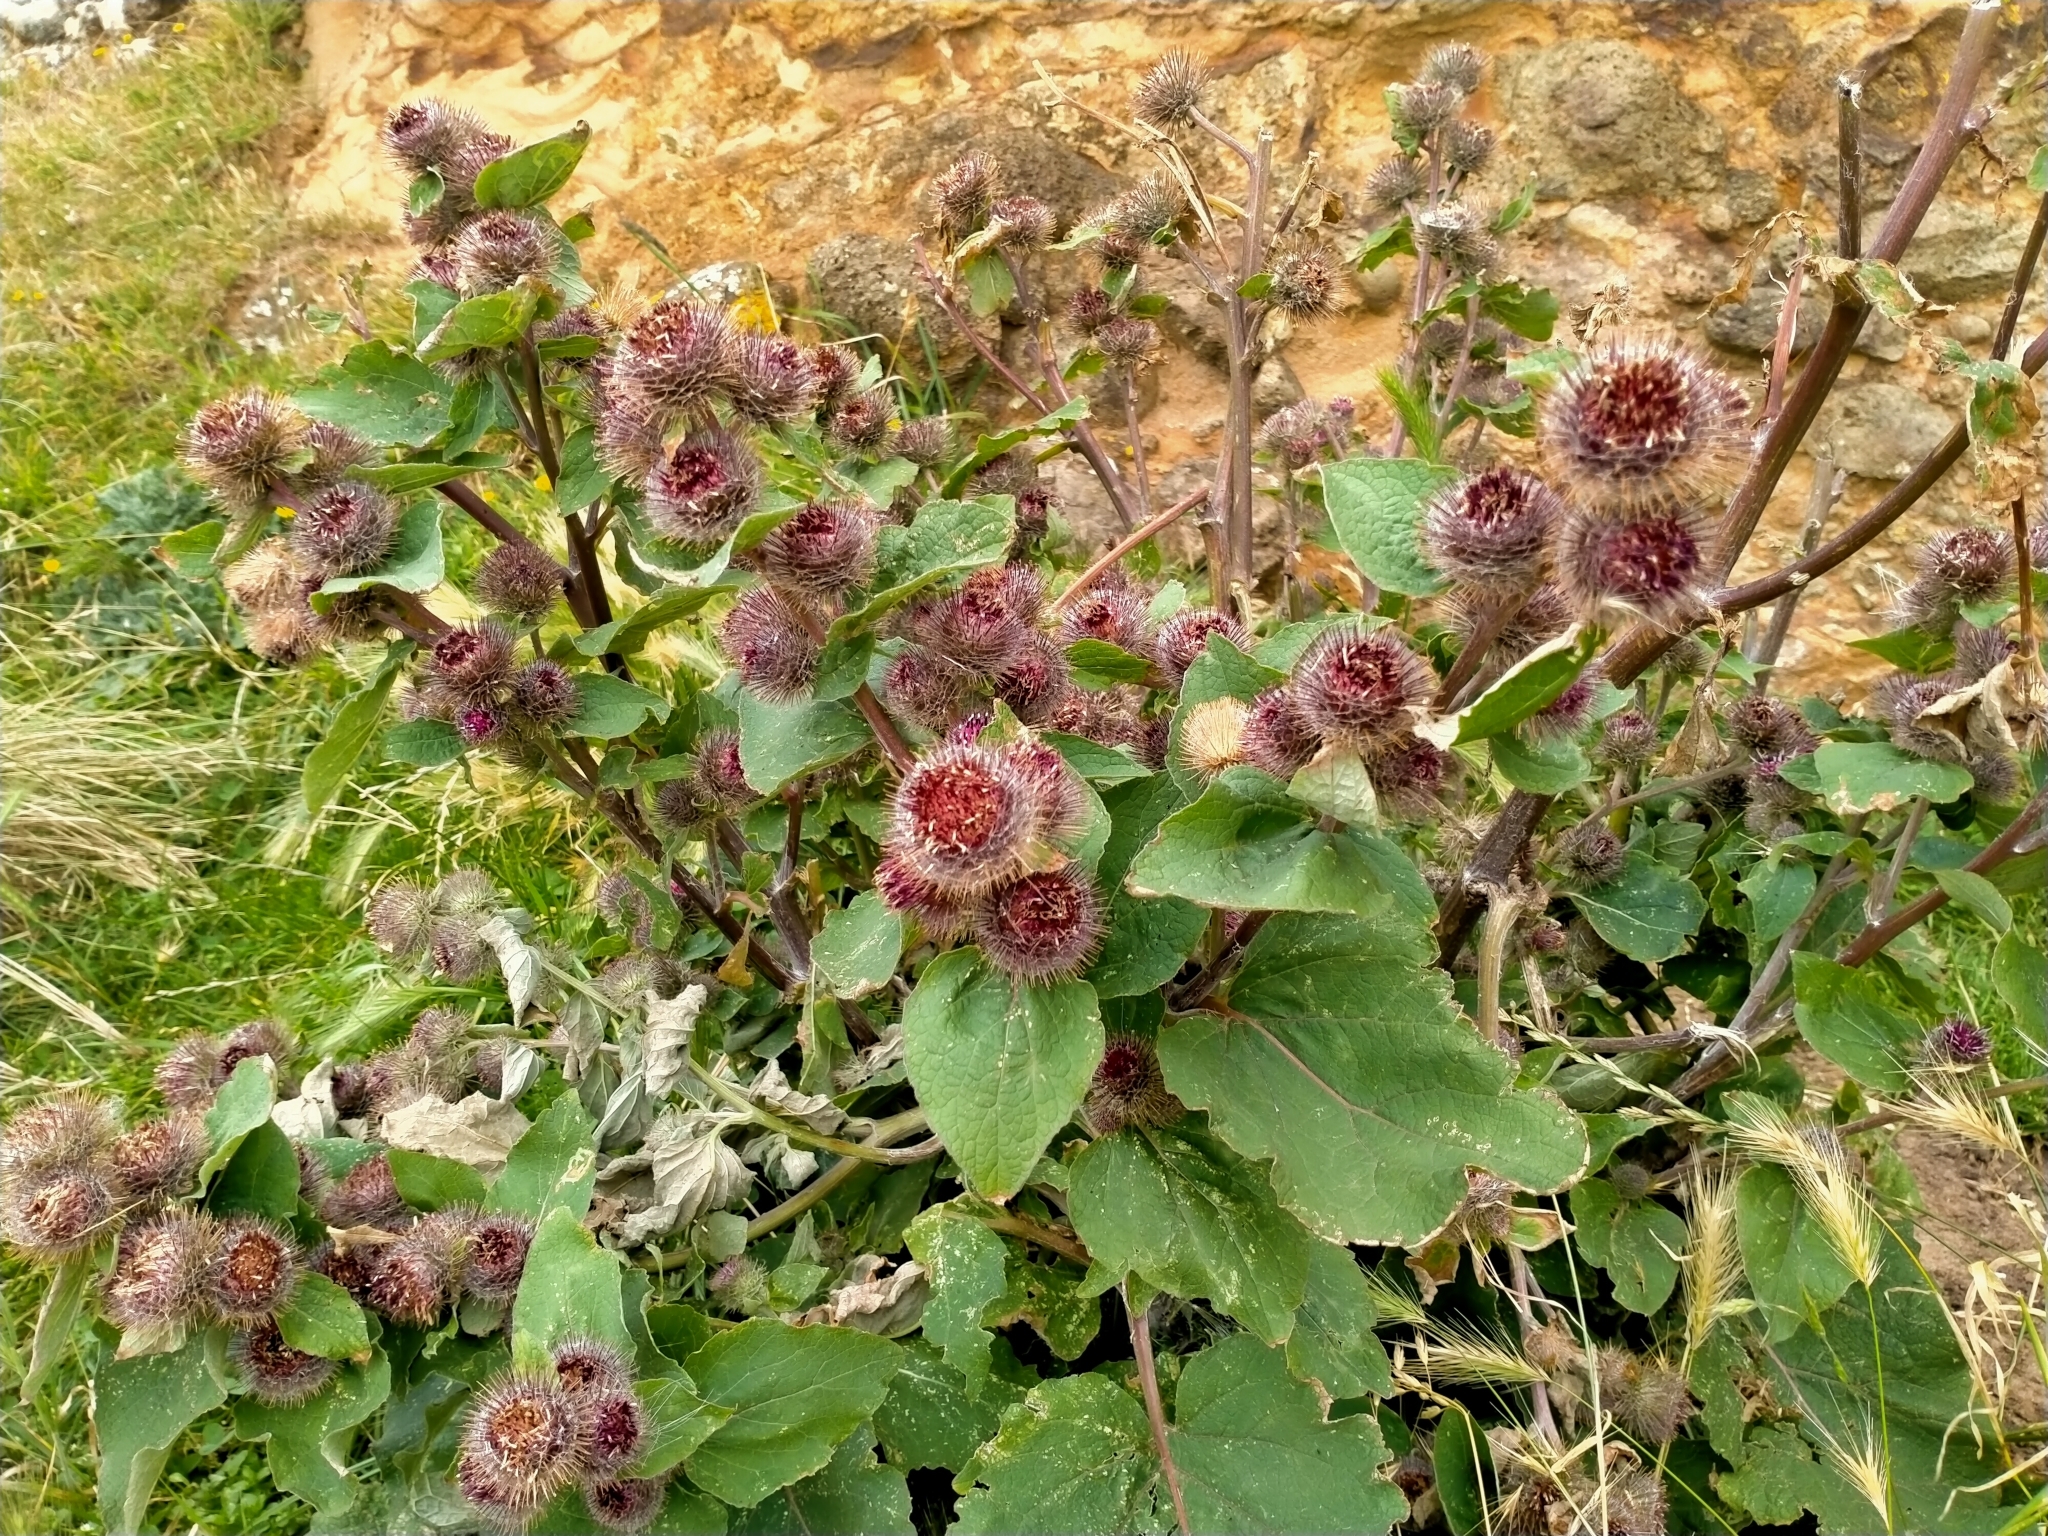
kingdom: Plantae
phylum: Tracheophyta
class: Magnoliopsida
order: Asterales
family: Asteraceae
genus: Arctium
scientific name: Arctium minus
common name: Lesser burdock
